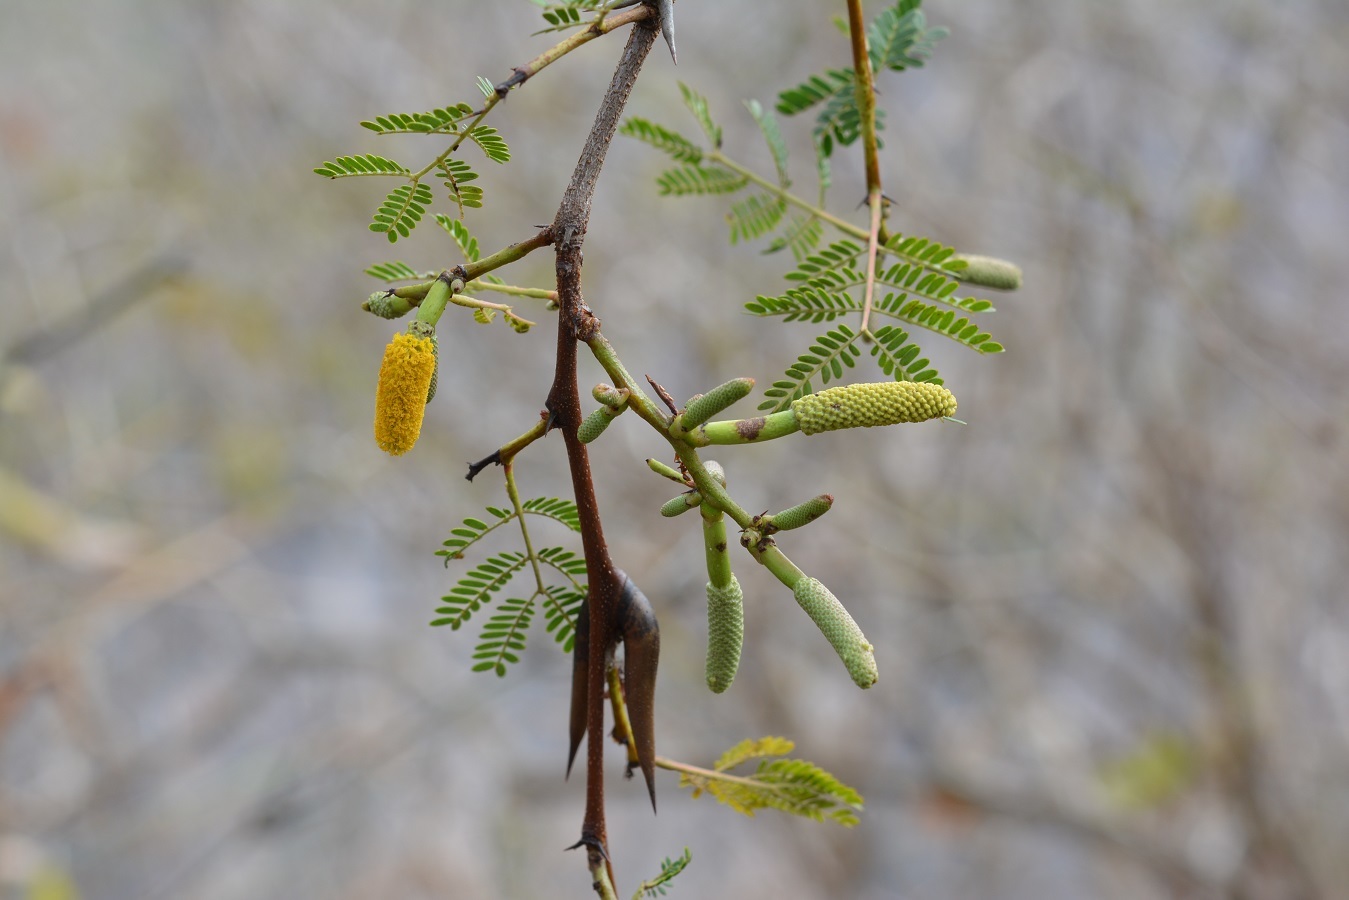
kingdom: Plantae
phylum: Tracheophyta
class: Magnoliopsida
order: Fabales
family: Fabaceae
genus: Vachellia
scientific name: Vachellia cornigera
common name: Bullhorn wattle
